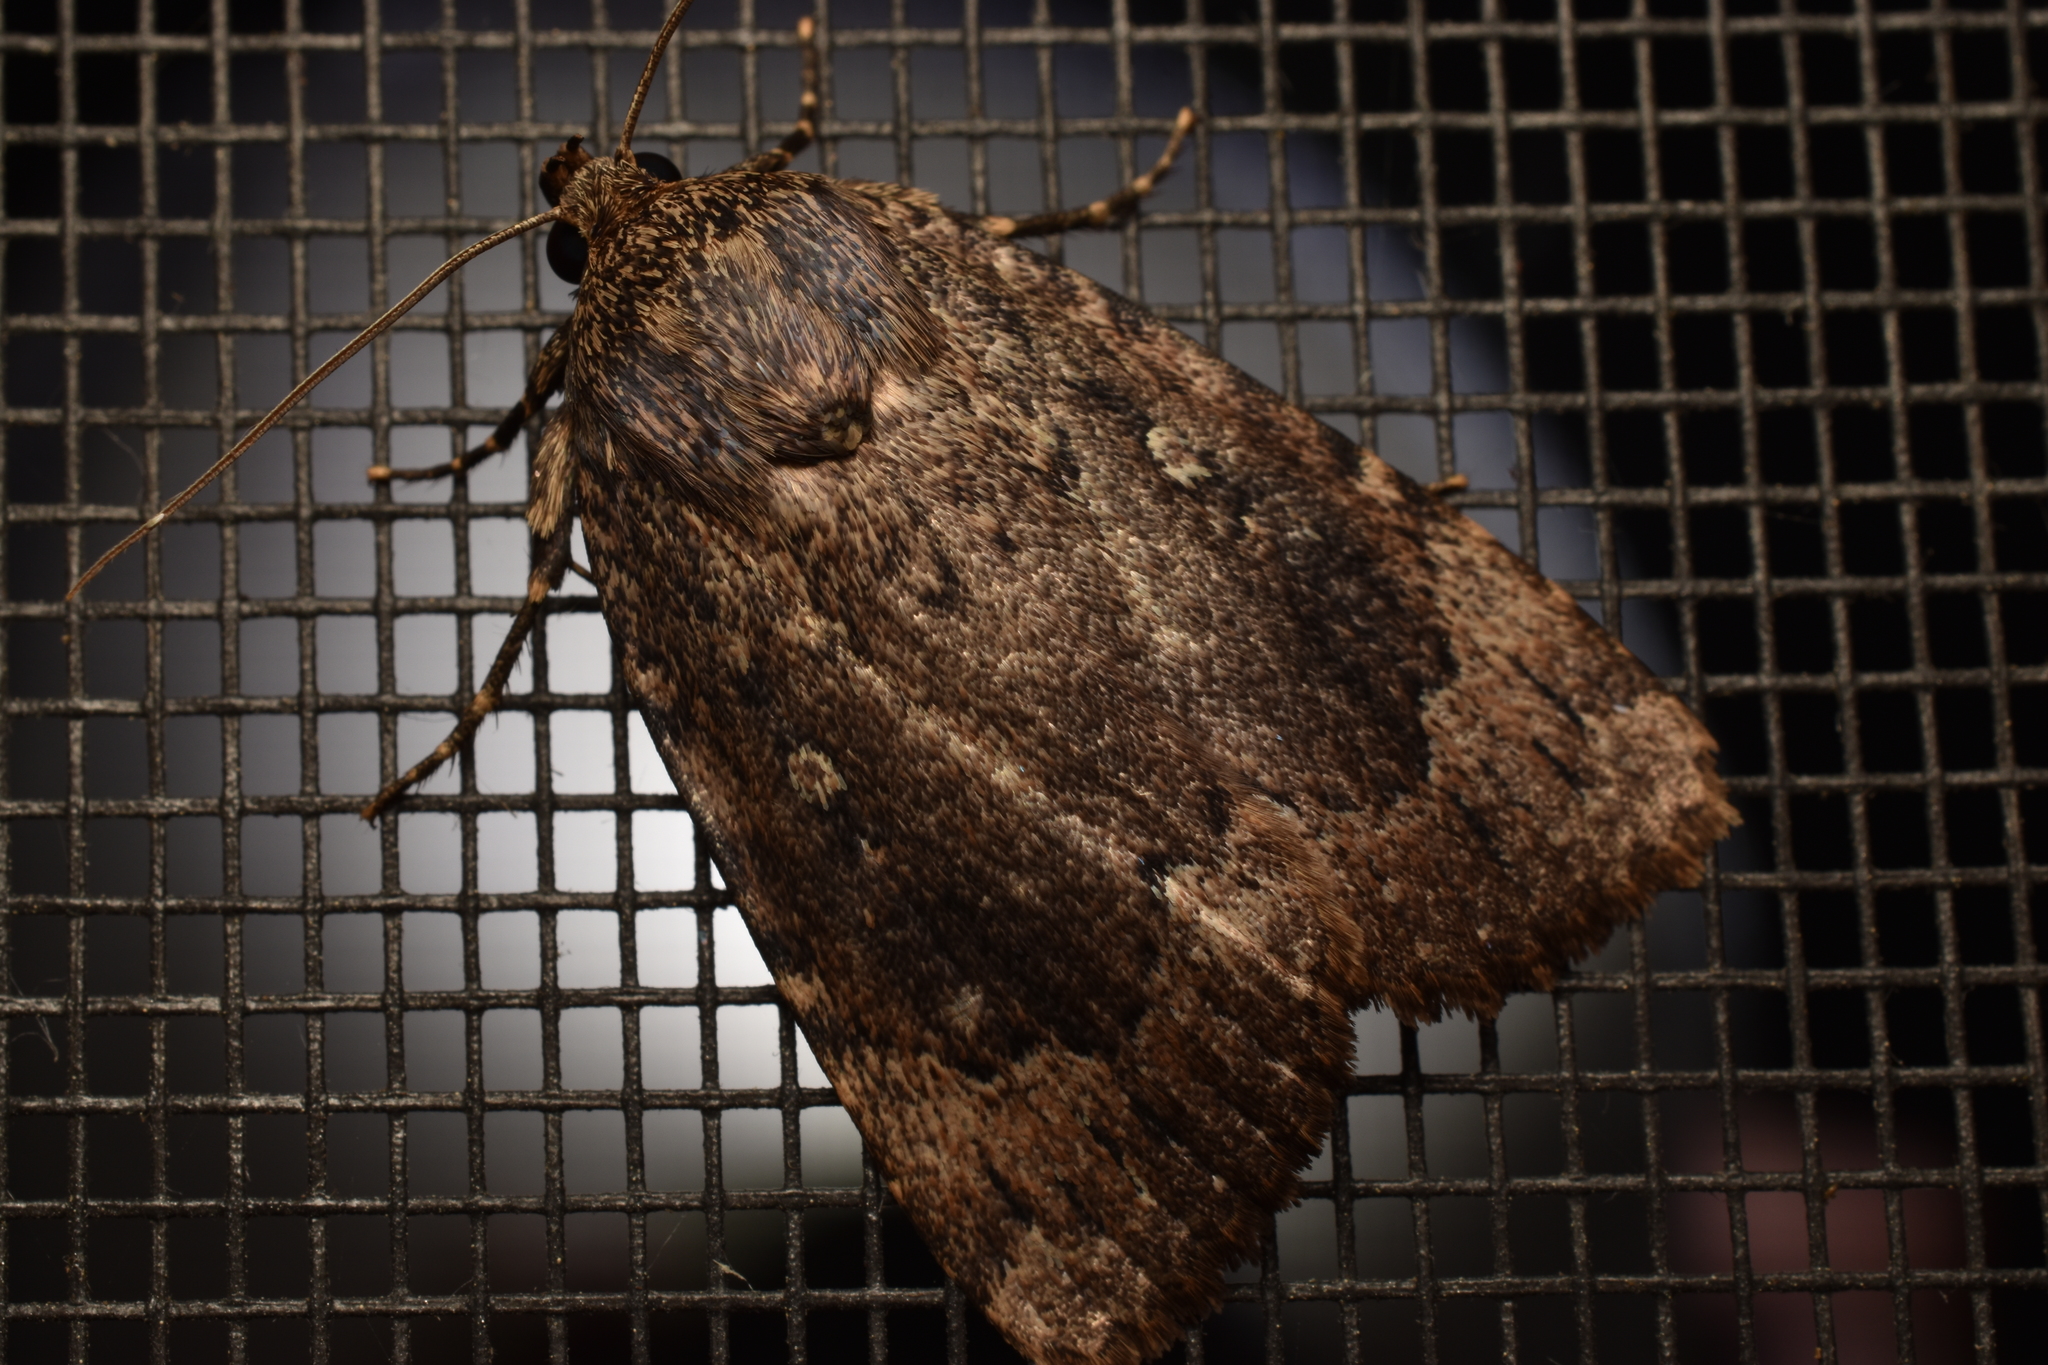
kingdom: Animalia
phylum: Arthropoda
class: Insecta
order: Lepidoptera
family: Noctuidae
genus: Amphipyra
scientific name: Amphipyra pyramidoides
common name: American copper underwing
